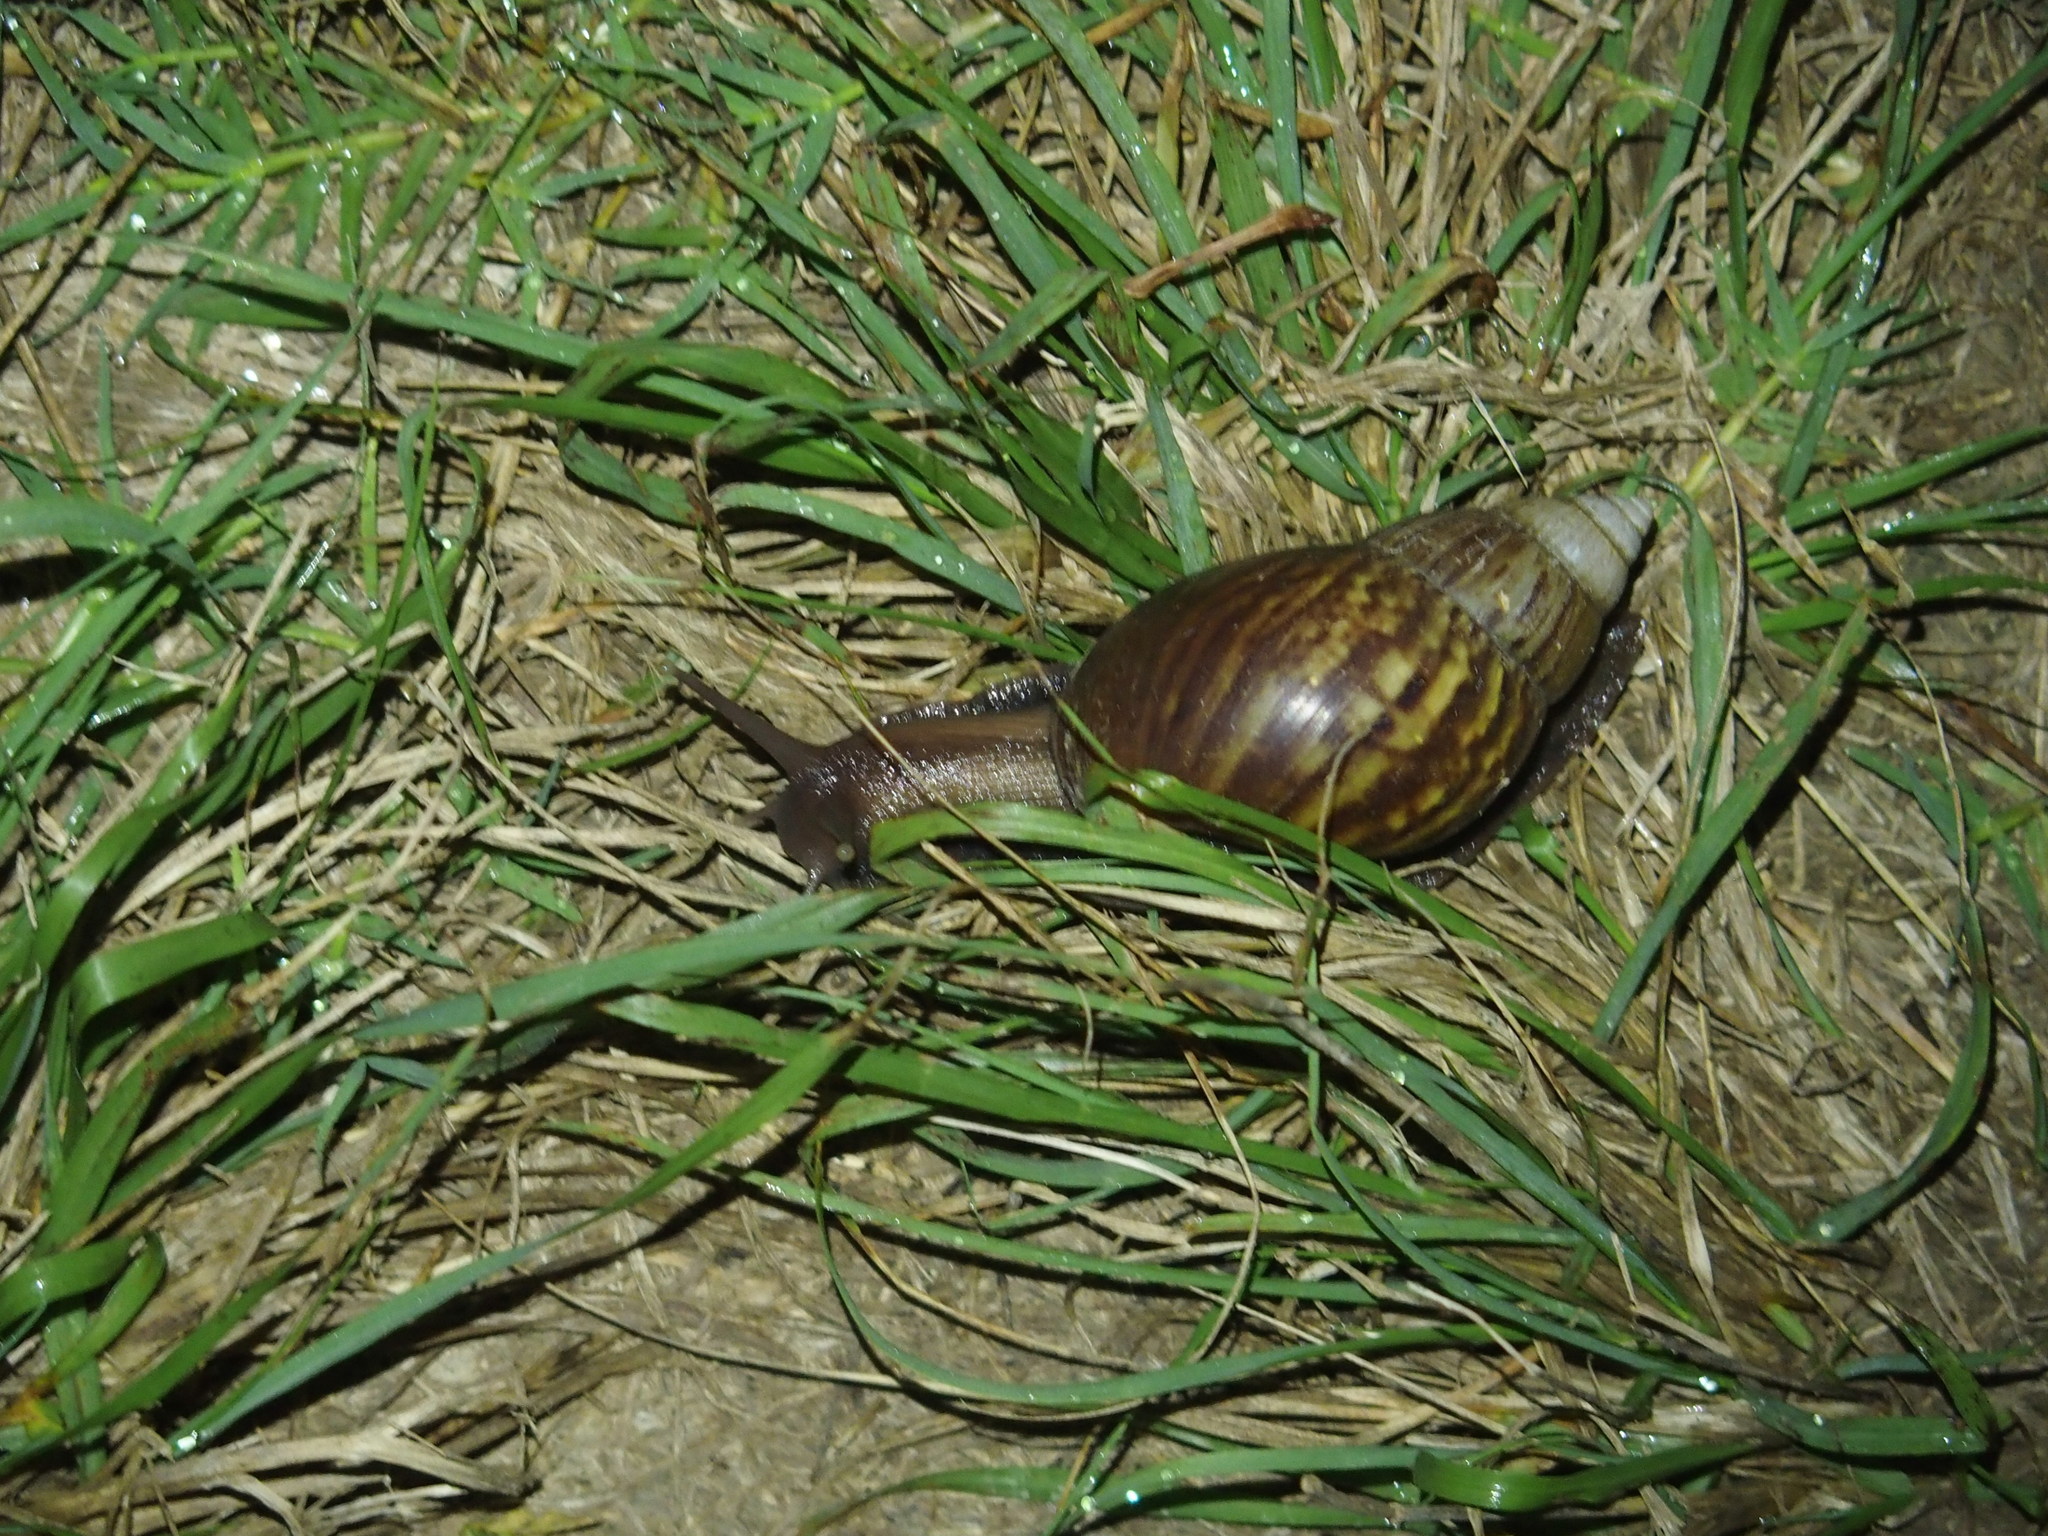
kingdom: Animalia
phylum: Mollusca
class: Gastropoda
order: Stylommatophora
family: Achatinidae
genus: Lissachatina
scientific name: Lissachatina fulica
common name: Giant african snail
